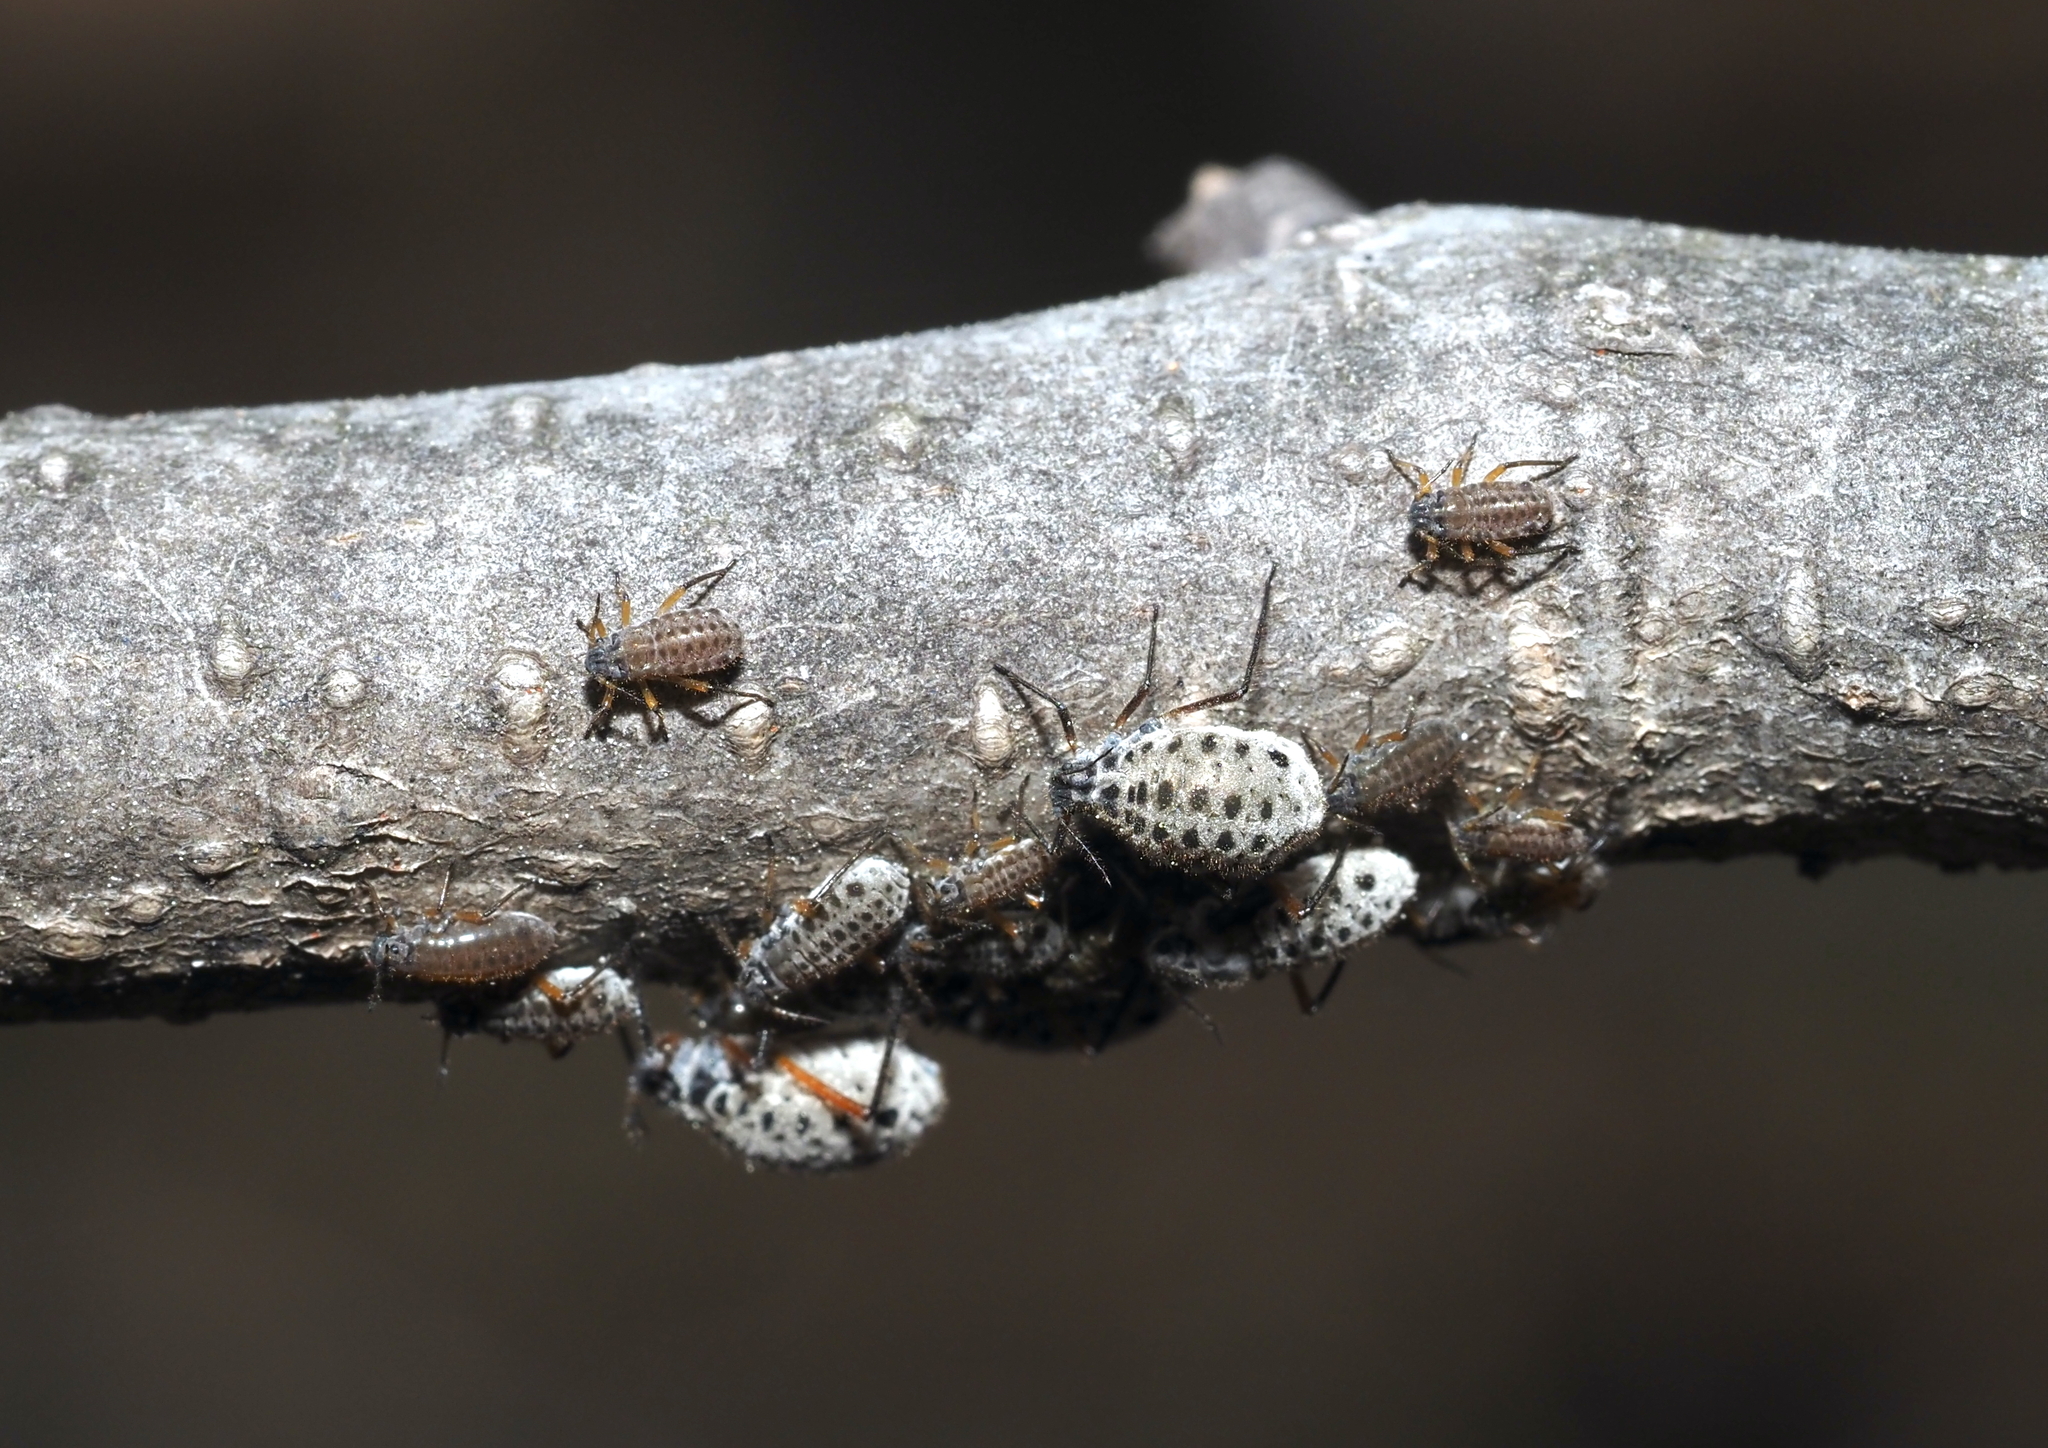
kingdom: Animalia
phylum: Arthropoda
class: Insecta
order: Hemiptera
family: Aphididae
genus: Longistigma
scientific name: Longistigma caryae
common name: Giant bark aphid
